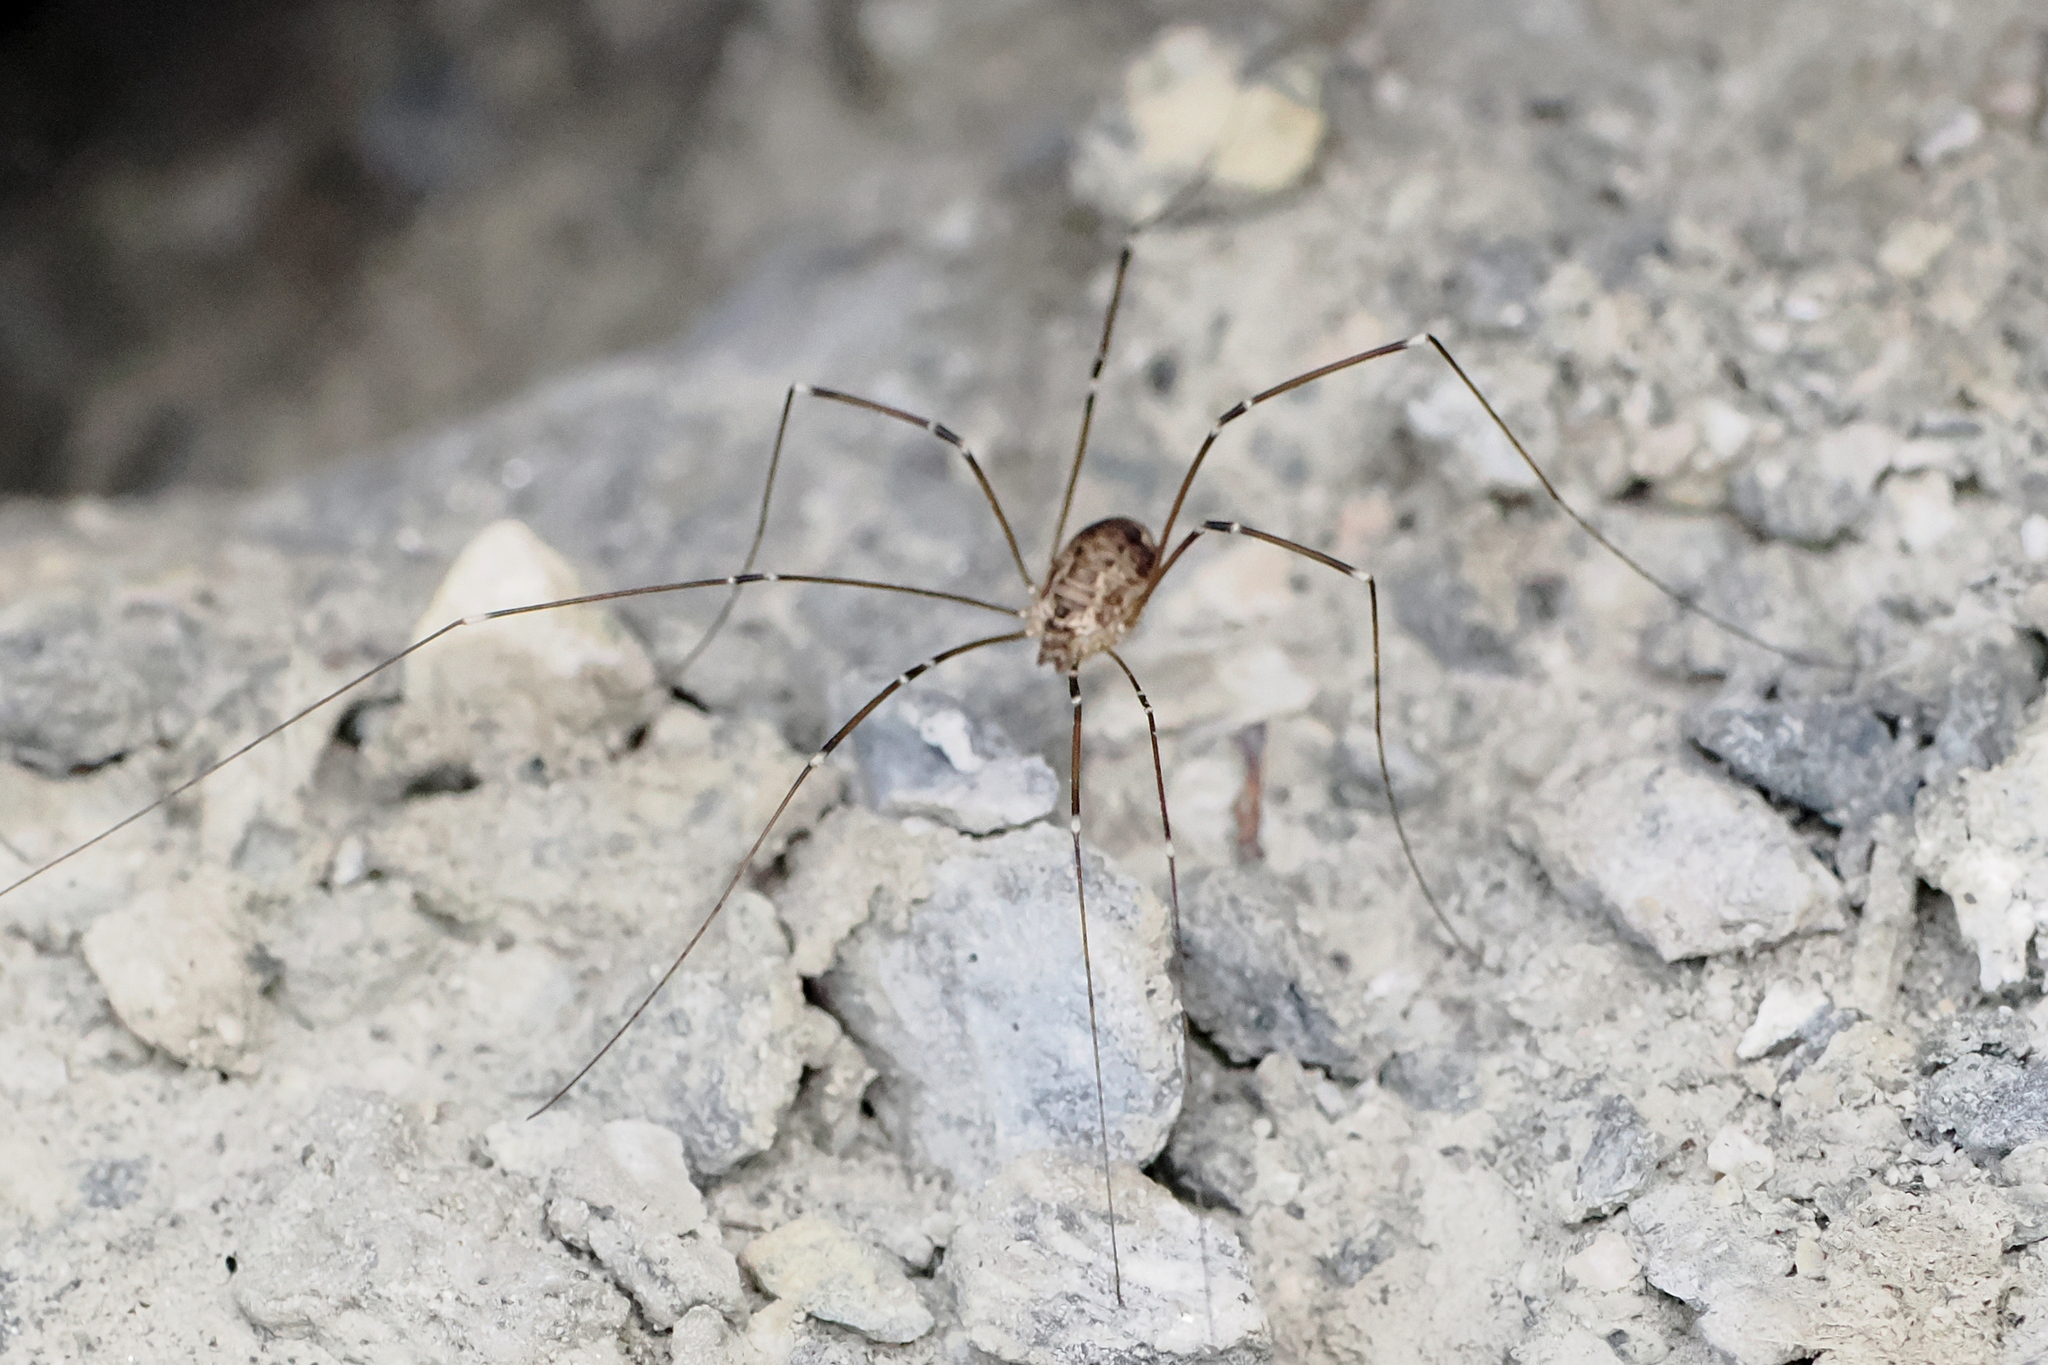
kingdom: Animalia
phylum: Arthropoda
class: Arachnida
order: Opiliones
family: Sclerosomatidae
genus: Leiobunum
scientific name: Leiobunum gracile
